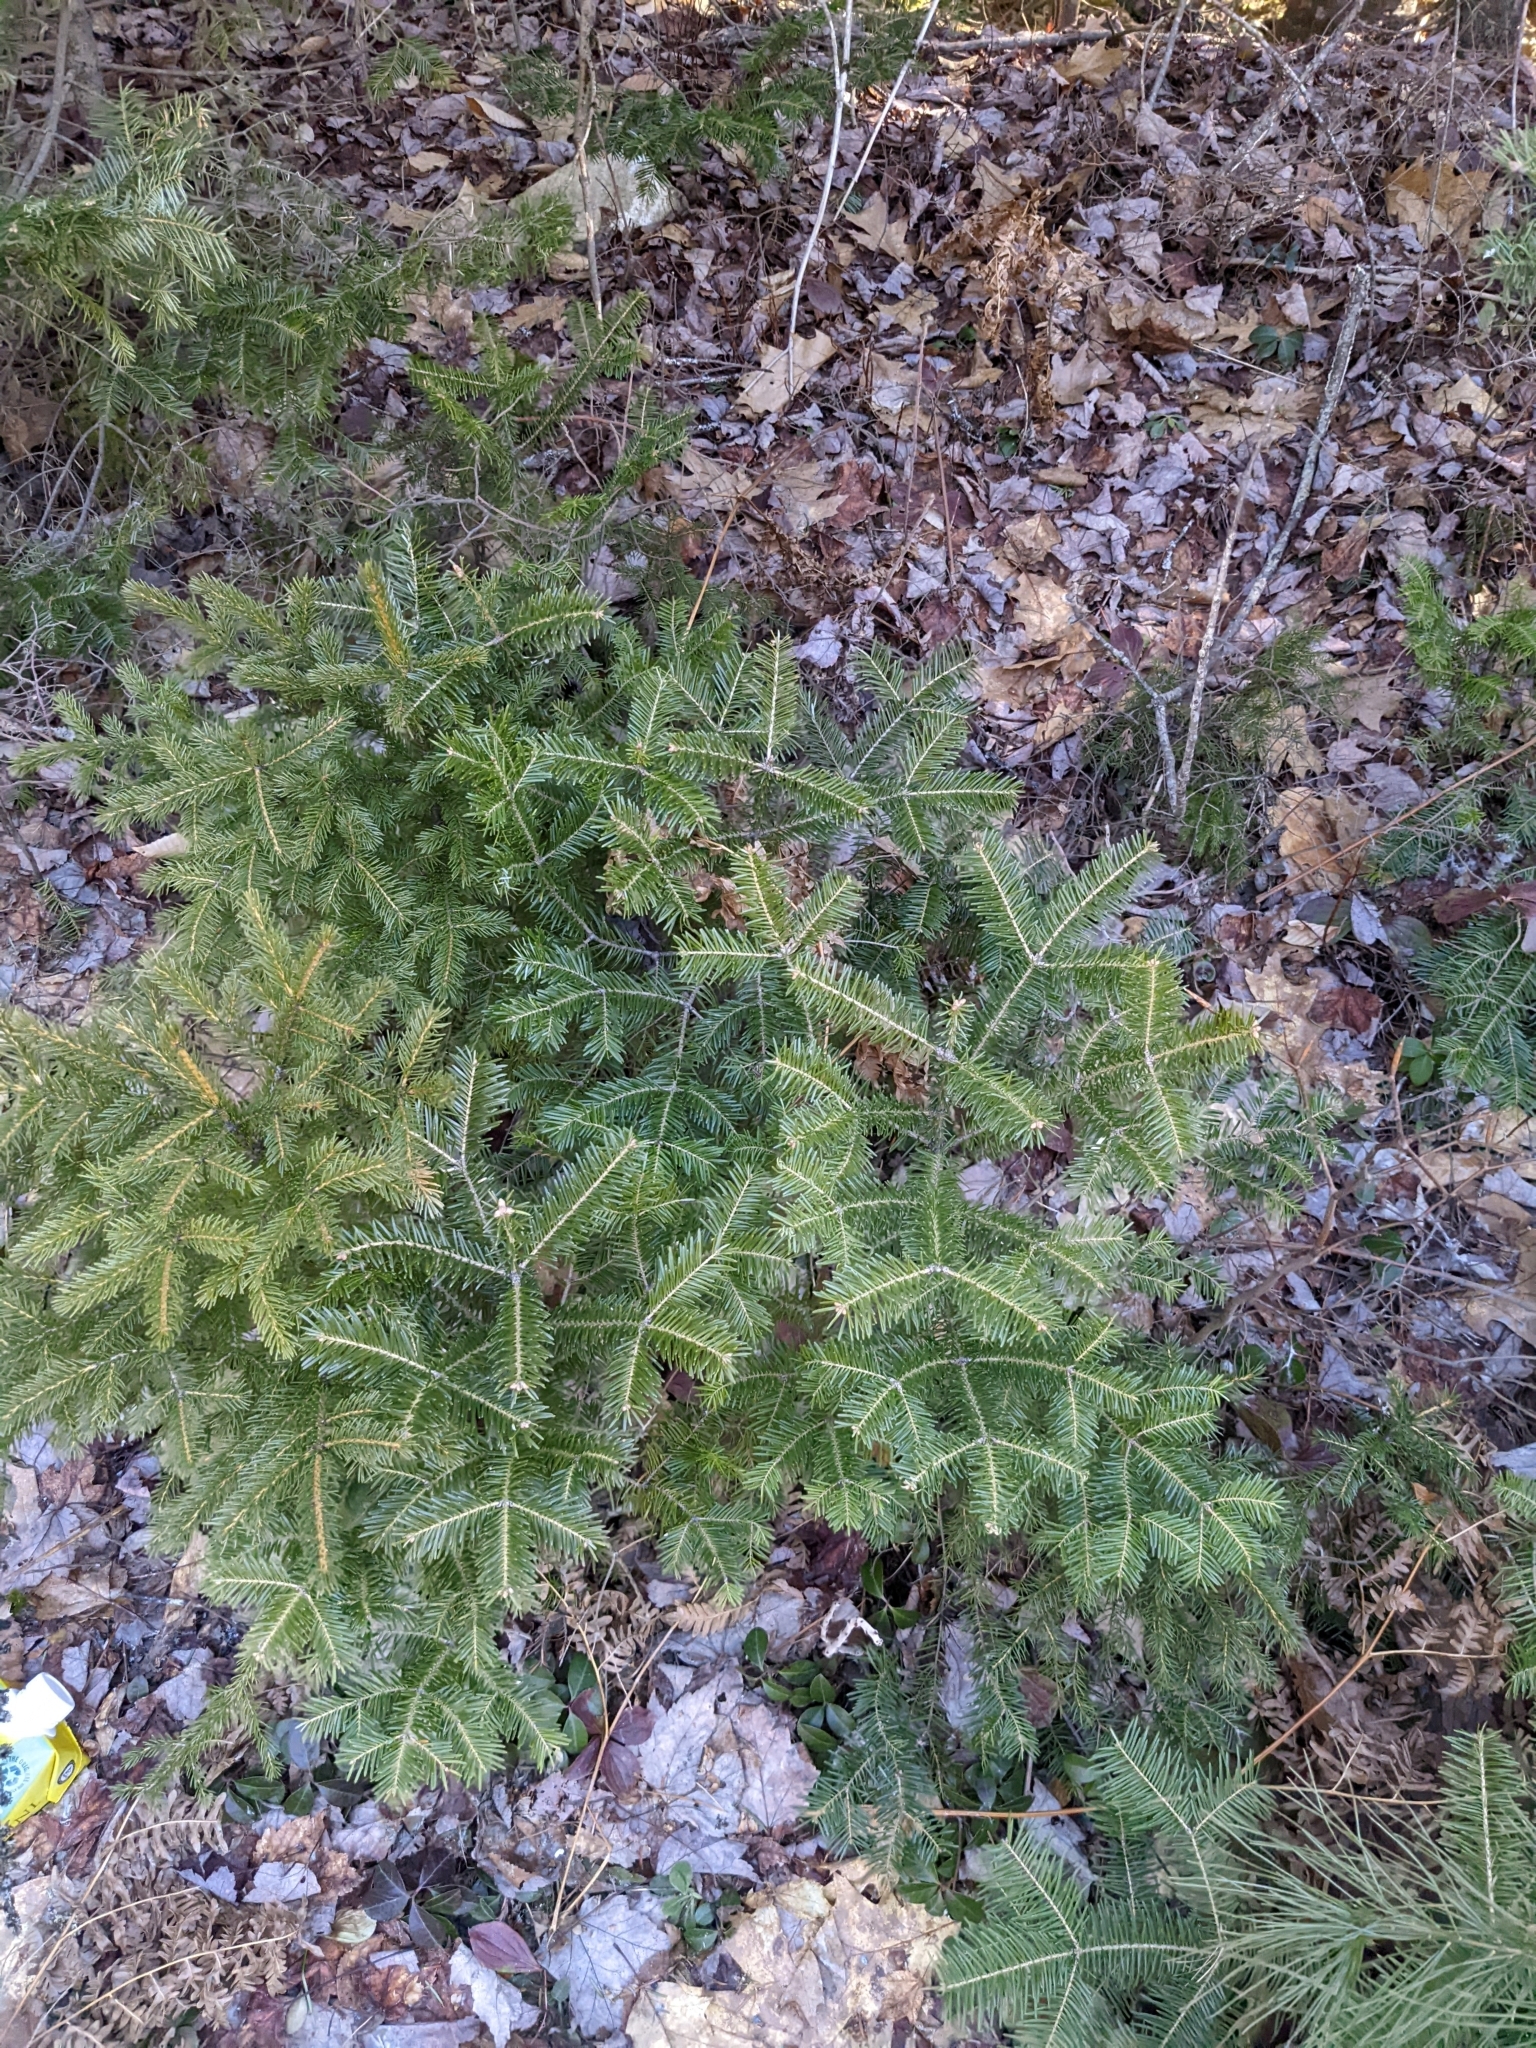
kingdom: Plantae
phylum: Tracheophyta
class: Pinopsida
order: Pinales
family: Pinaceae
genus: Abies
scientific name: Abies balsamea
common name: Balsam fir
